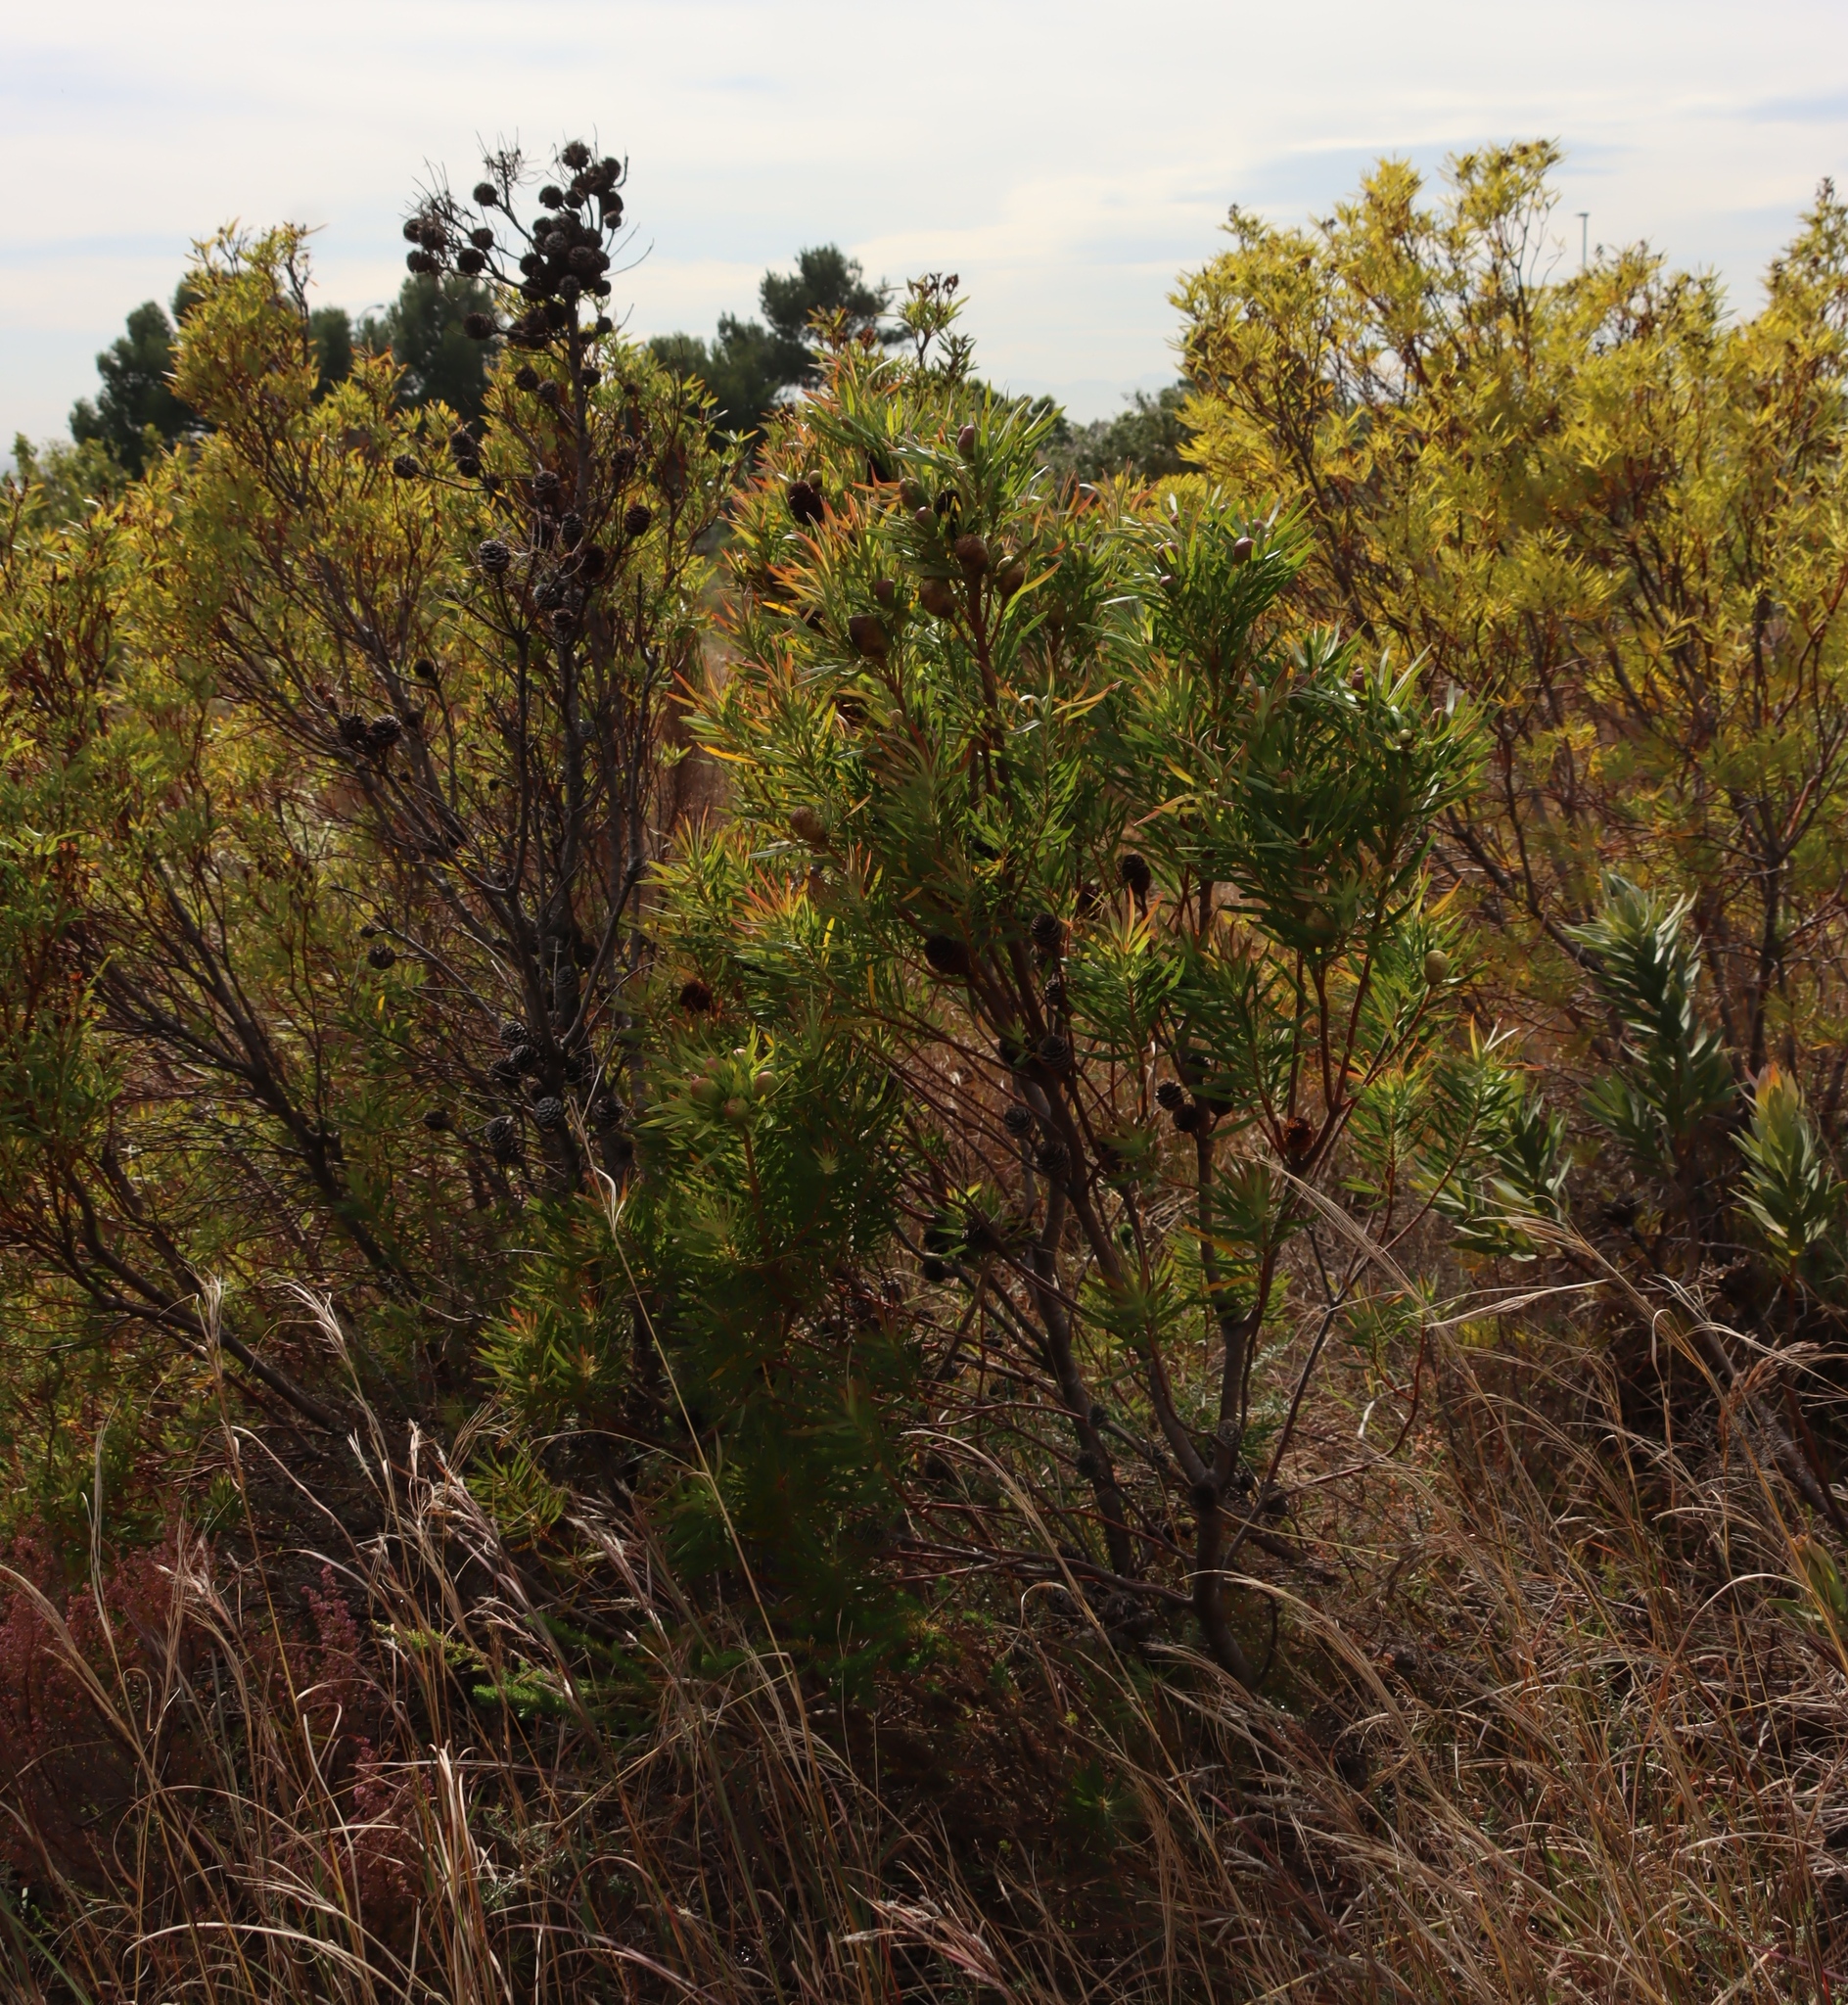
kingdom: Plantae
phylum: Tracheophyta
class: Magnoliopsida
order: Proteales
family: Proteaceae
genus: Leucadendron
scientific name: Leucadendron salicifolium
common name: Common stream conebush
